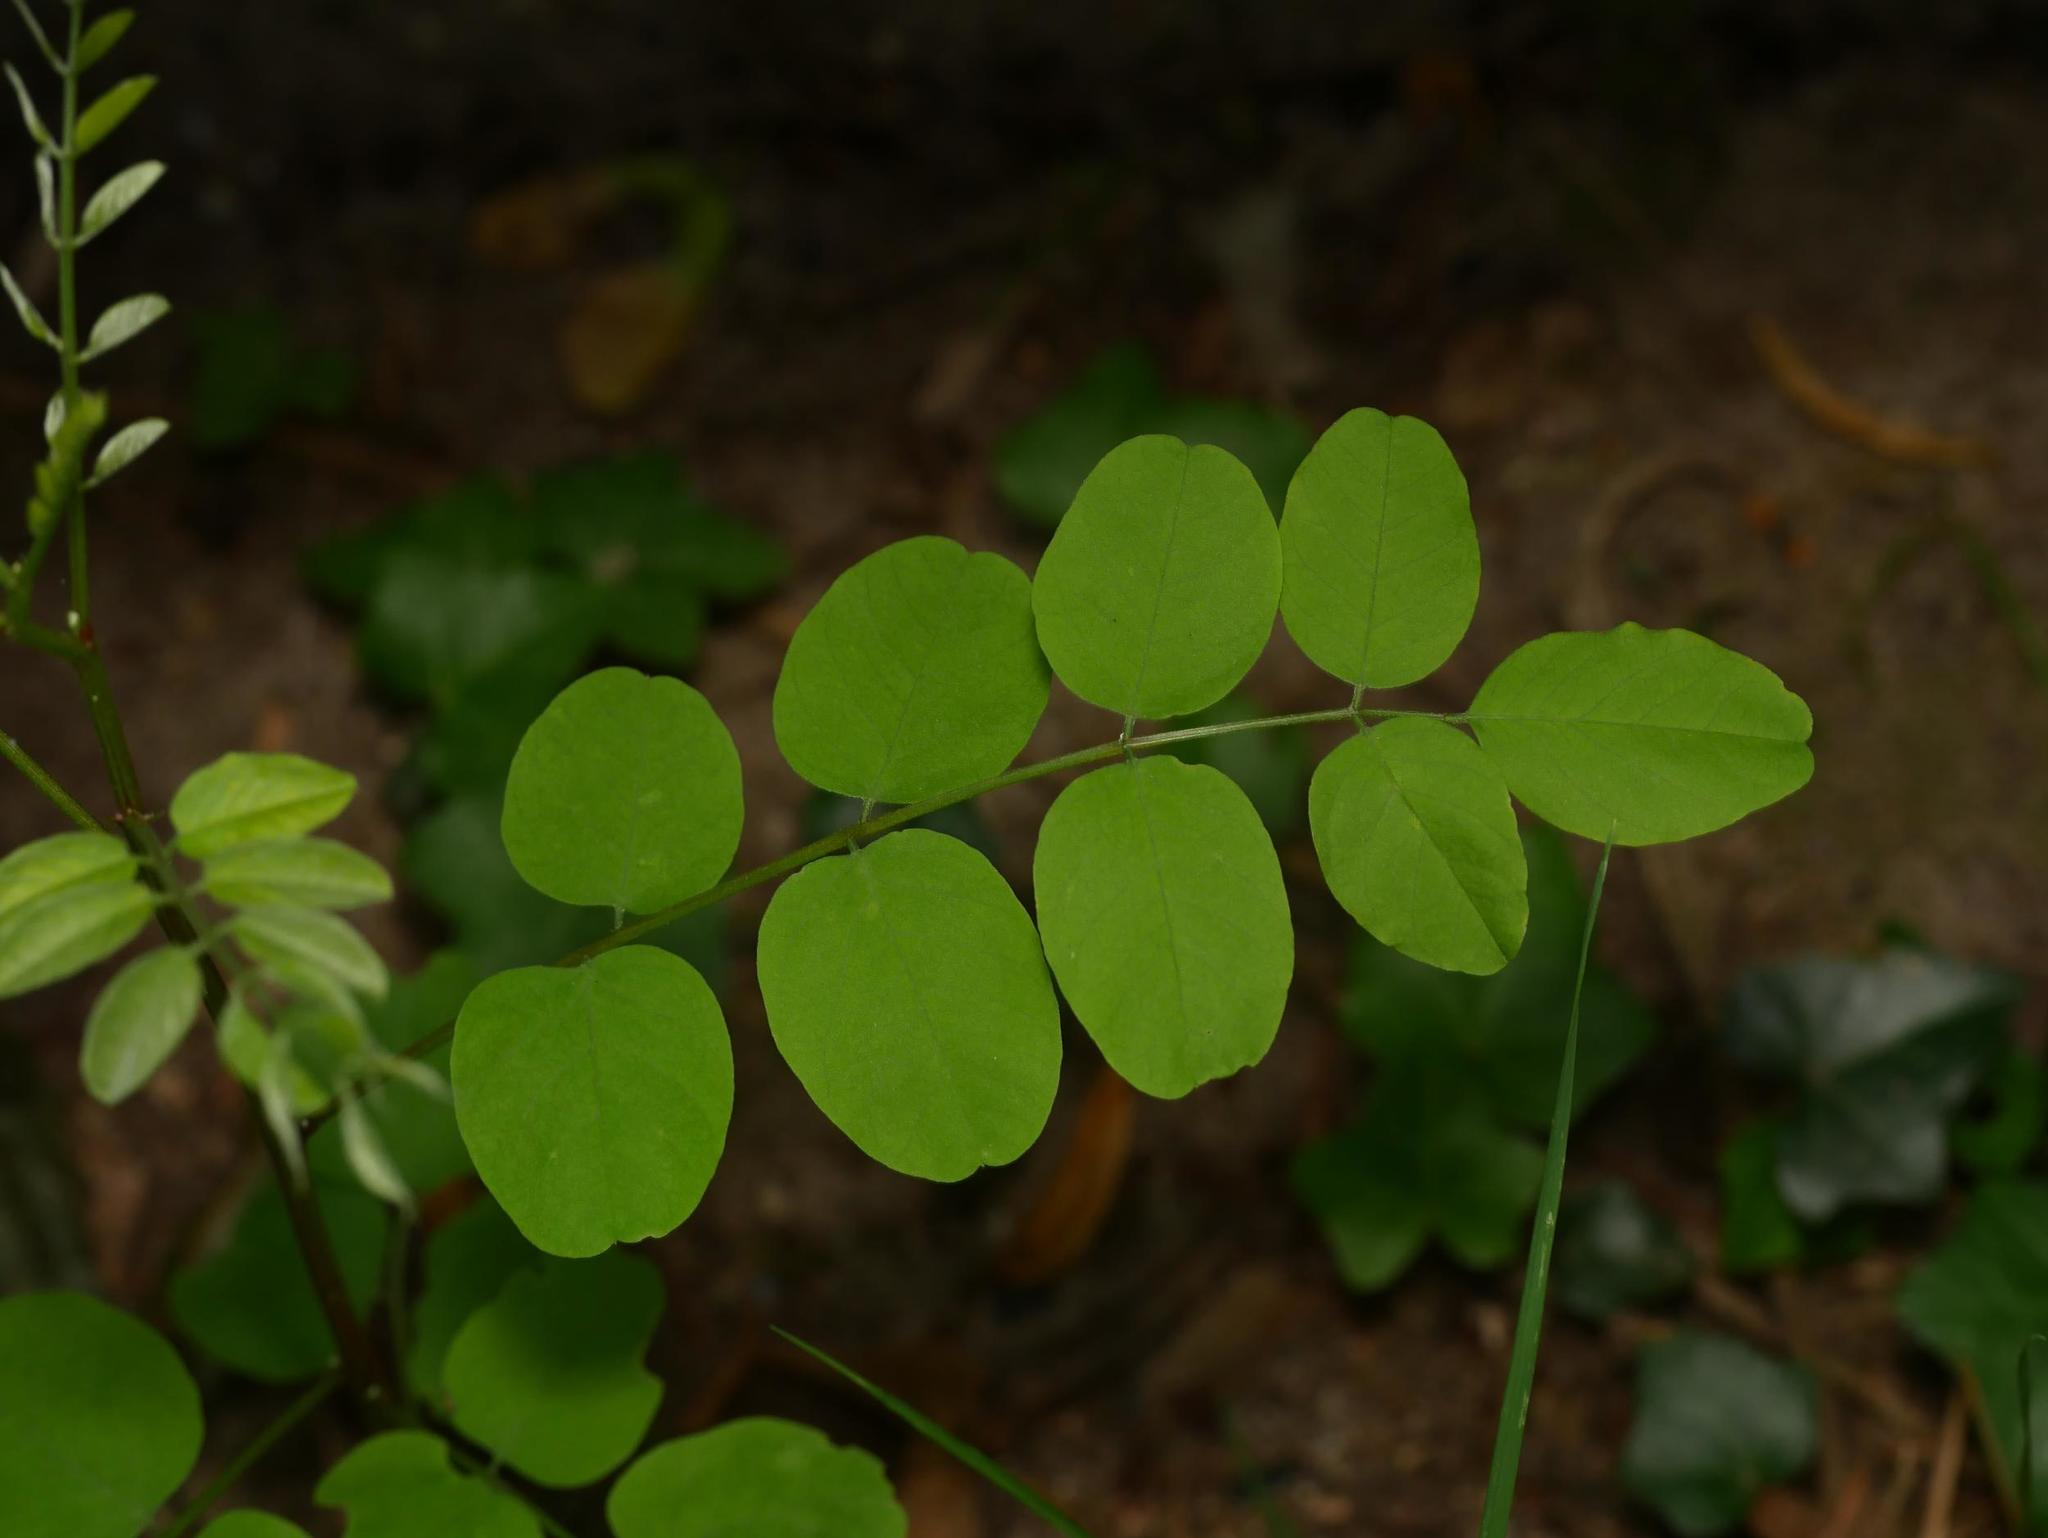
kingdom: Plantae
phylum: Tracheophyta
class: Magnoliopsida
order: Fabales
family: Fabaceae
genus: Robinia
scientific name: Robinia pseudoacacia
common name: Black locust
